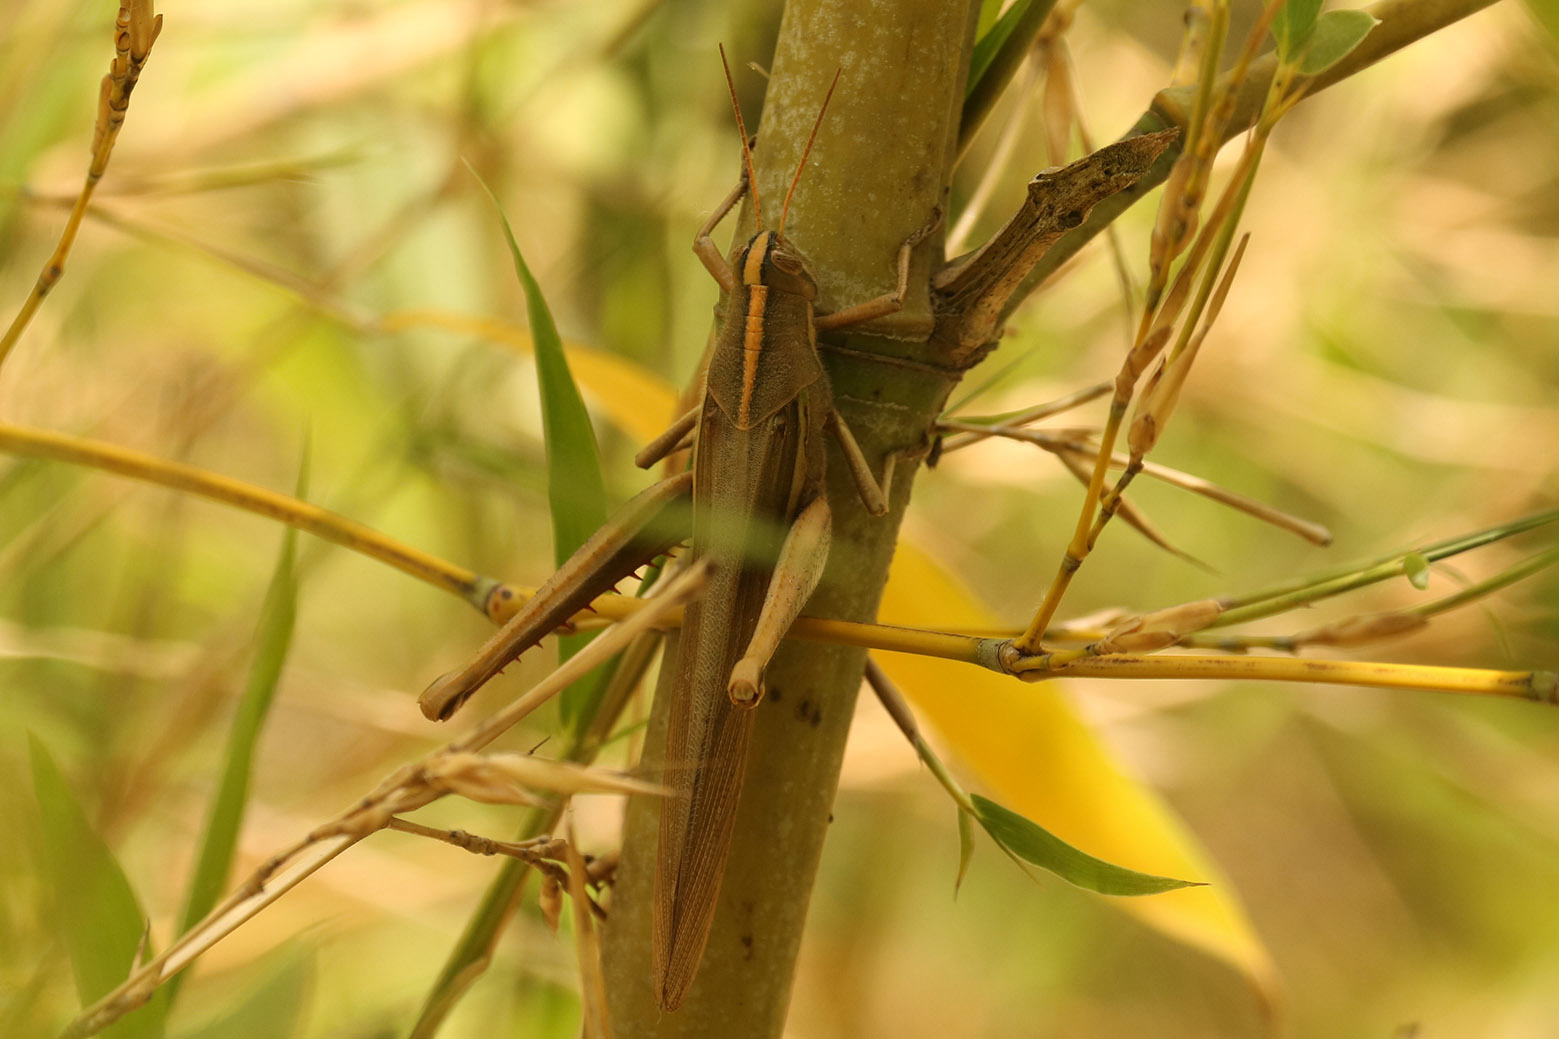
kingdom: Animalia
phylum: Arthropoda
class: Insecta
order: Orthoptera
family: Acrididae
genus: Schistocerca
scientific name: Schistocerca flavofasciata
